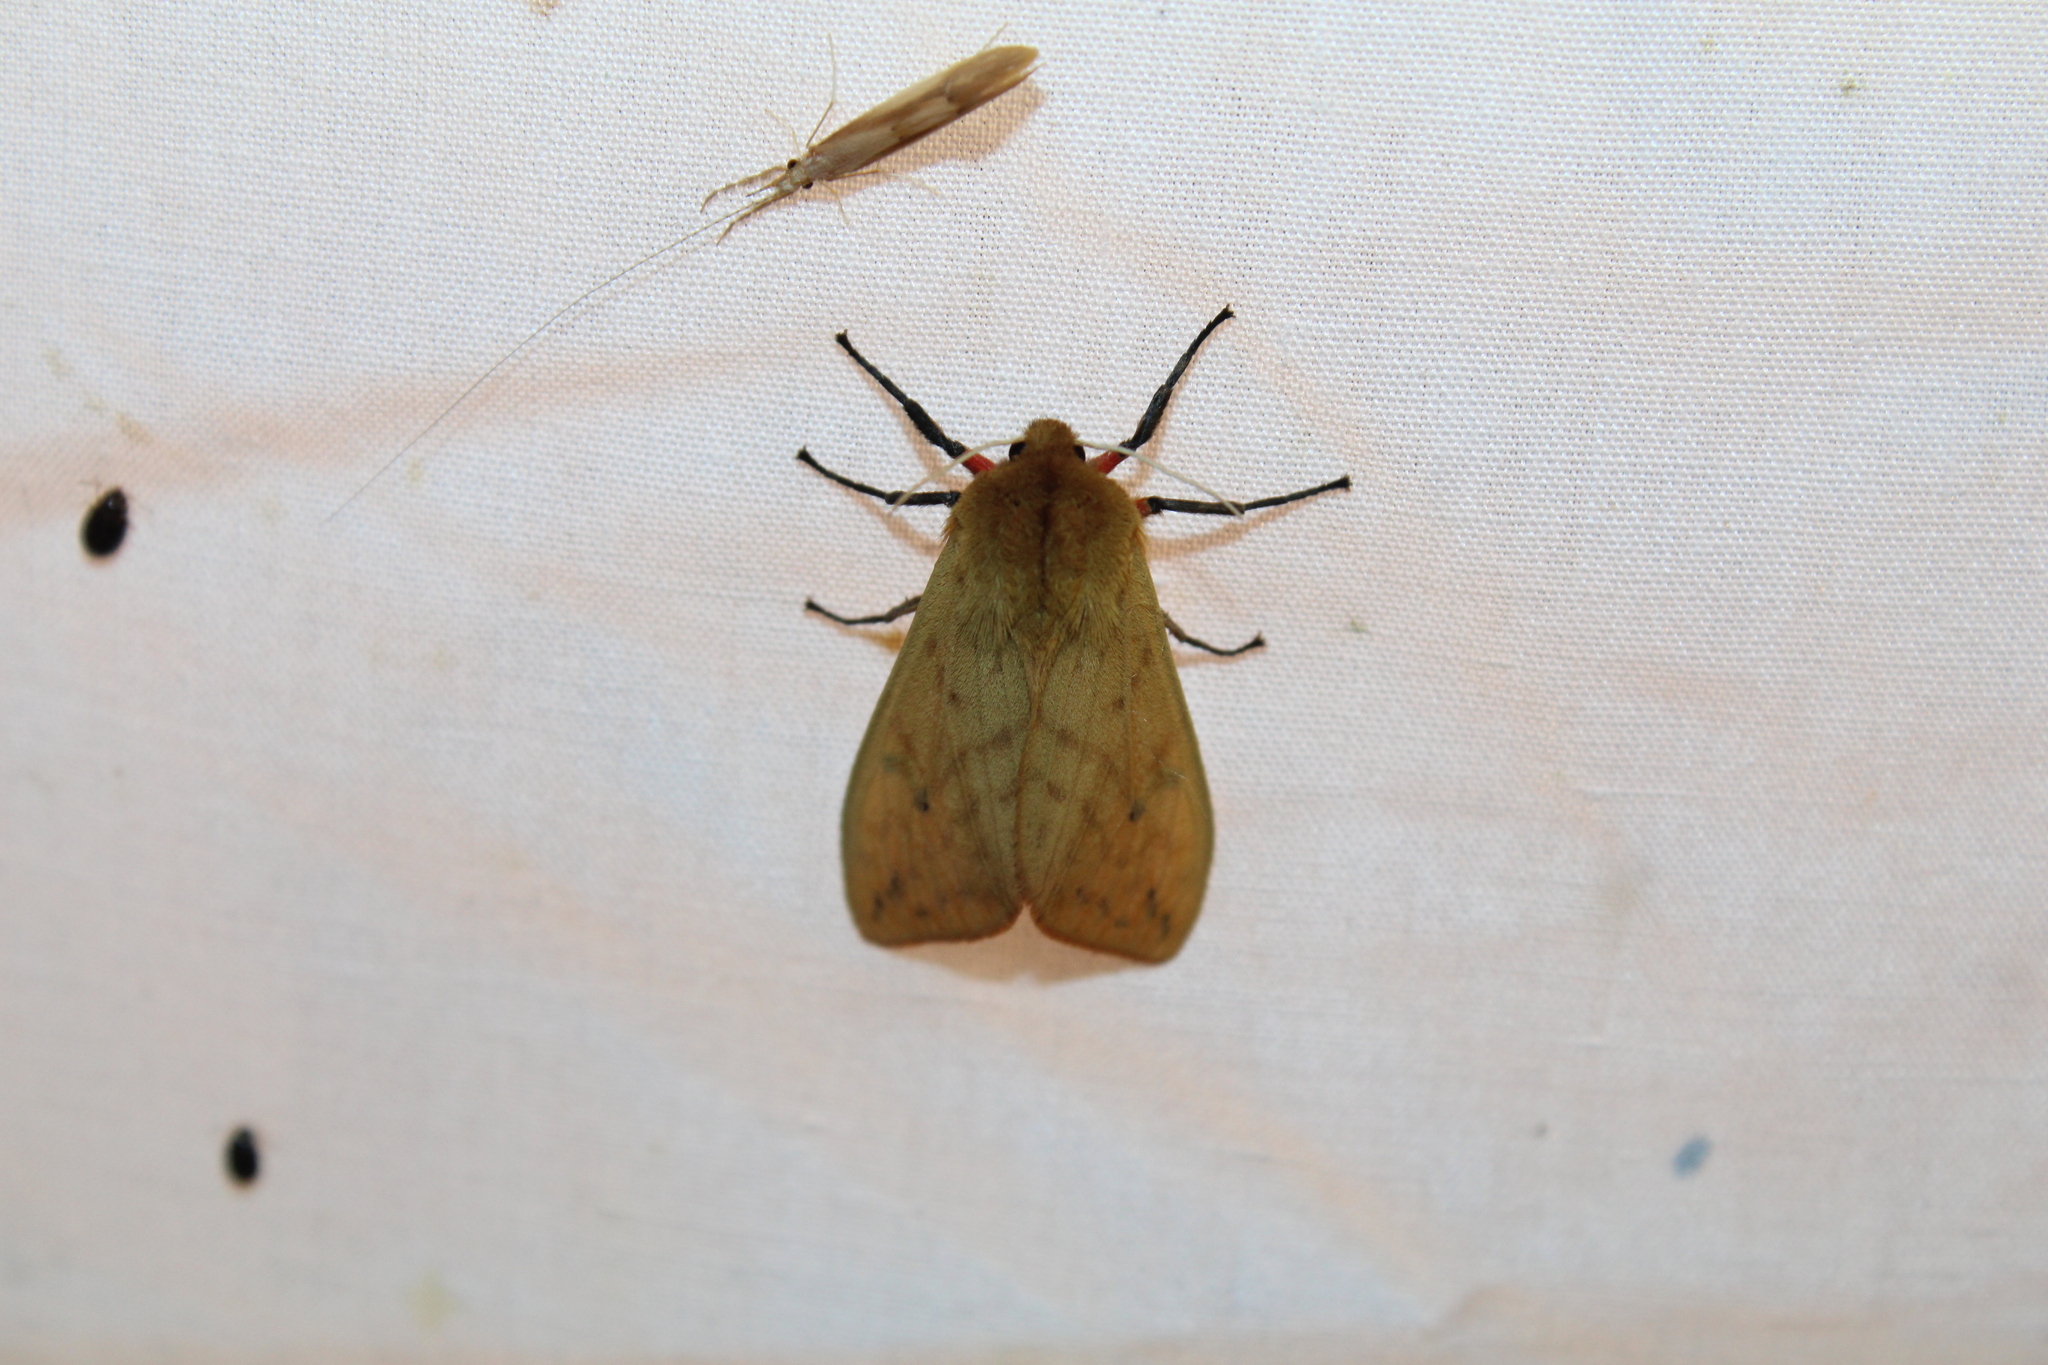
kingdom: Animalia
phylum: Arthropoda
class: Insecta
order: Lepidoptera
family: Erebidae
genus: Pyrrharctia
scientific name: Pyrrharctia isabella
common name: Isabella tiger moth
